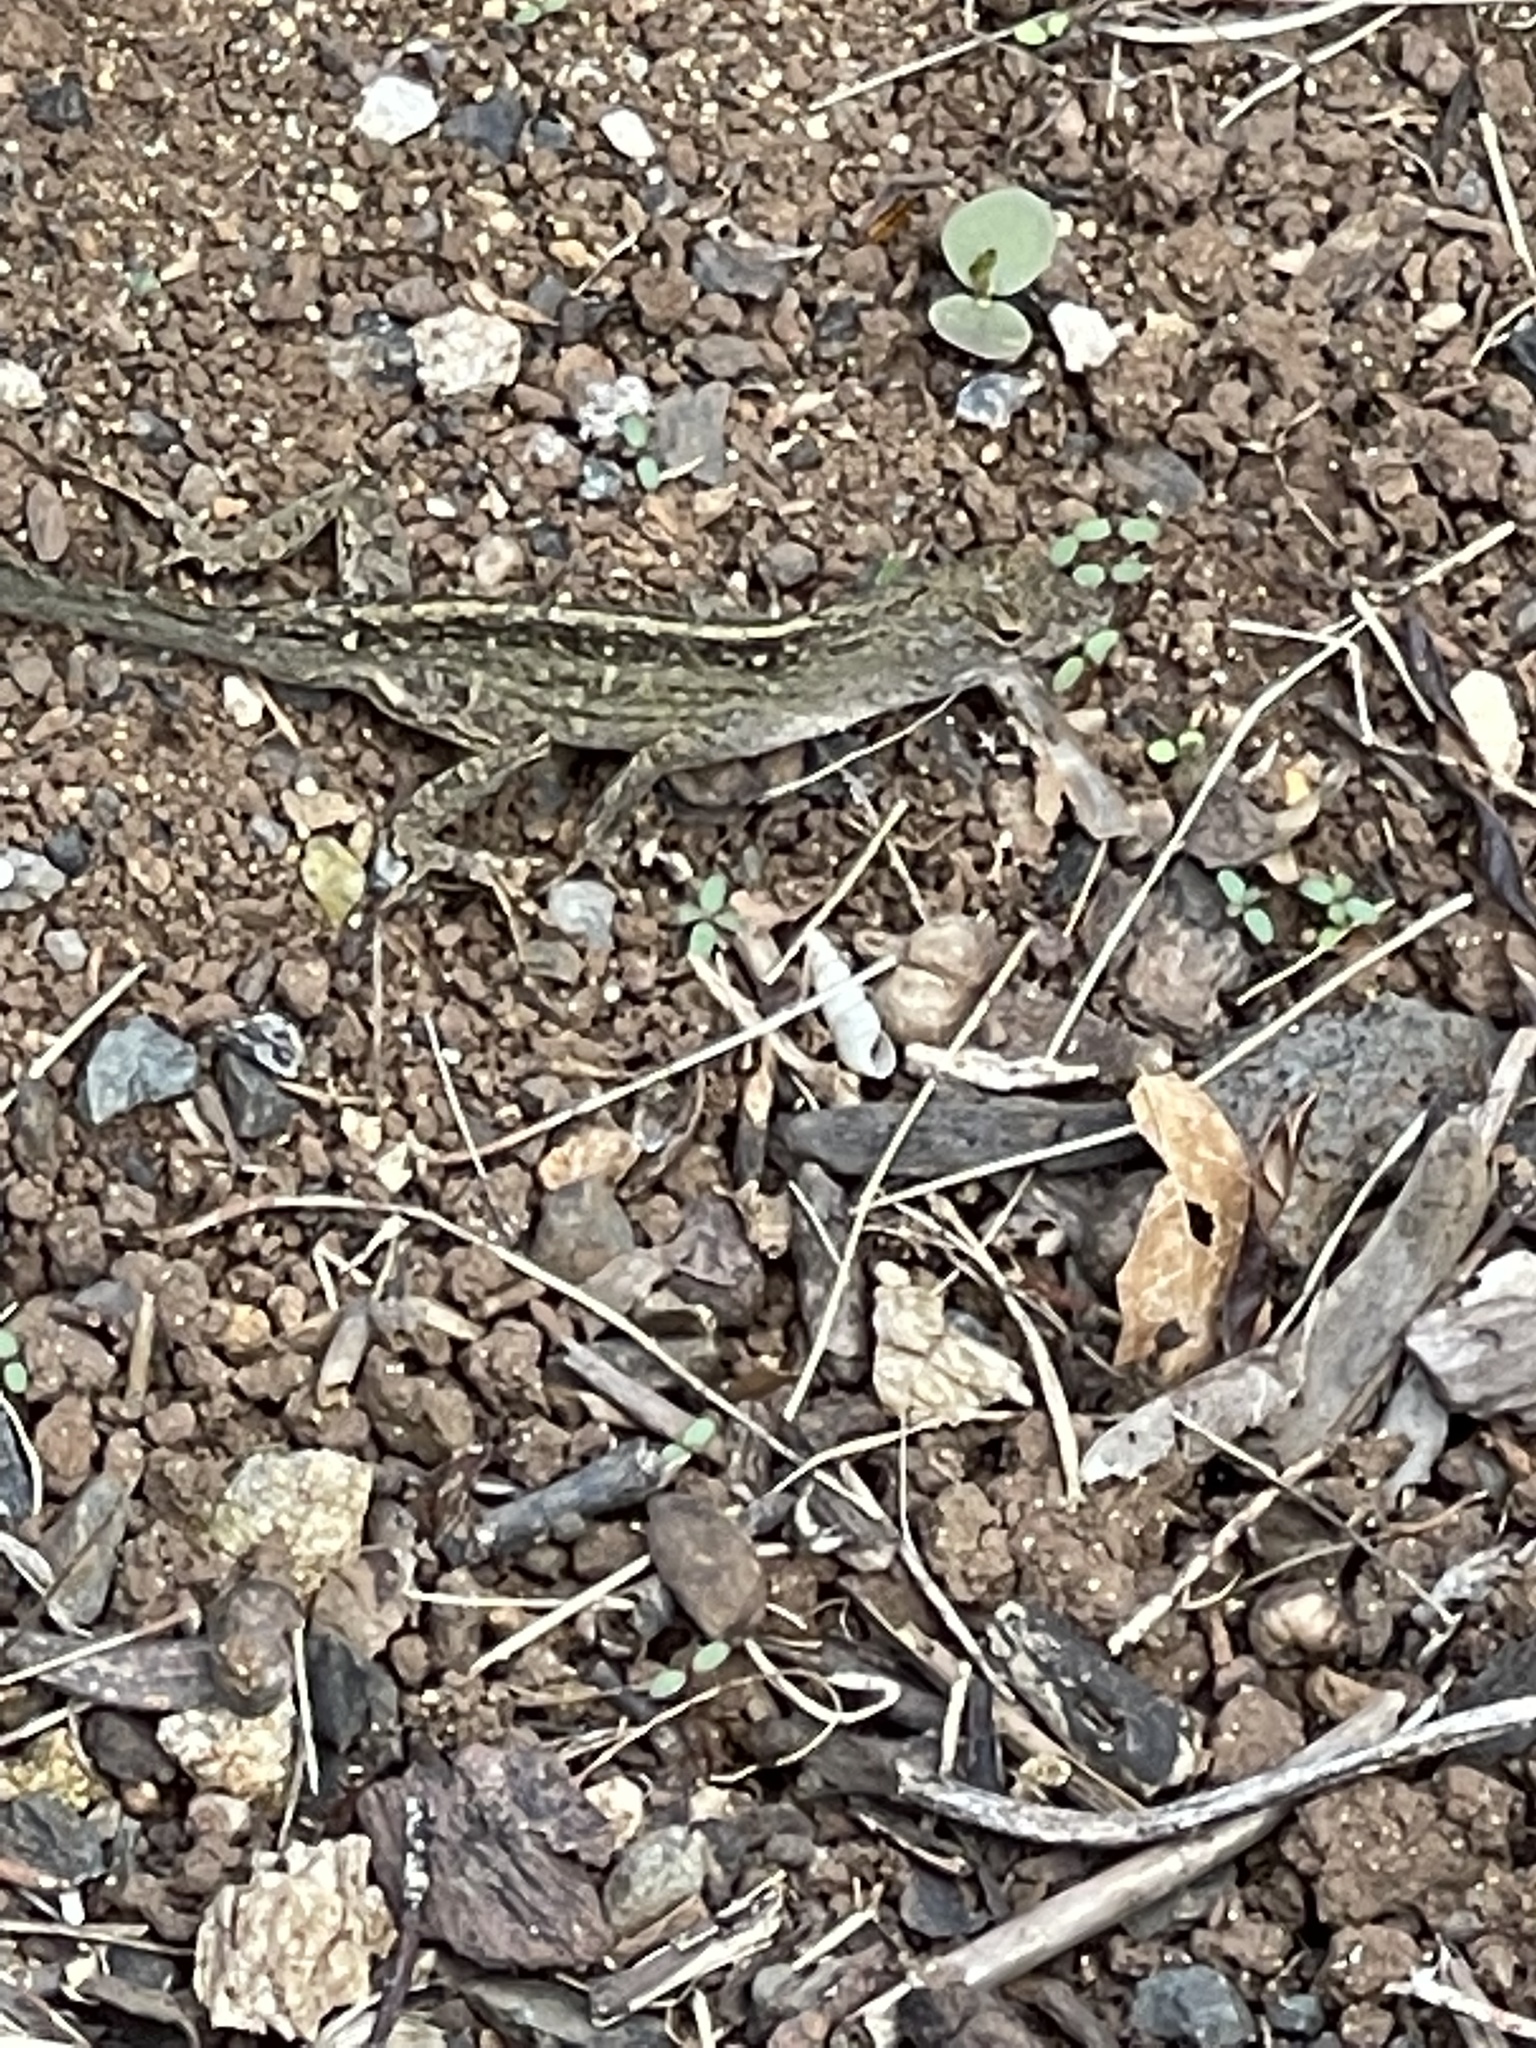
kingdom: Animalia
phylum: Chordata
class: Squamata
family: Dactyloidae
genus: Anolis
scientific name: Anolis sagrei
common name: Brown anole
